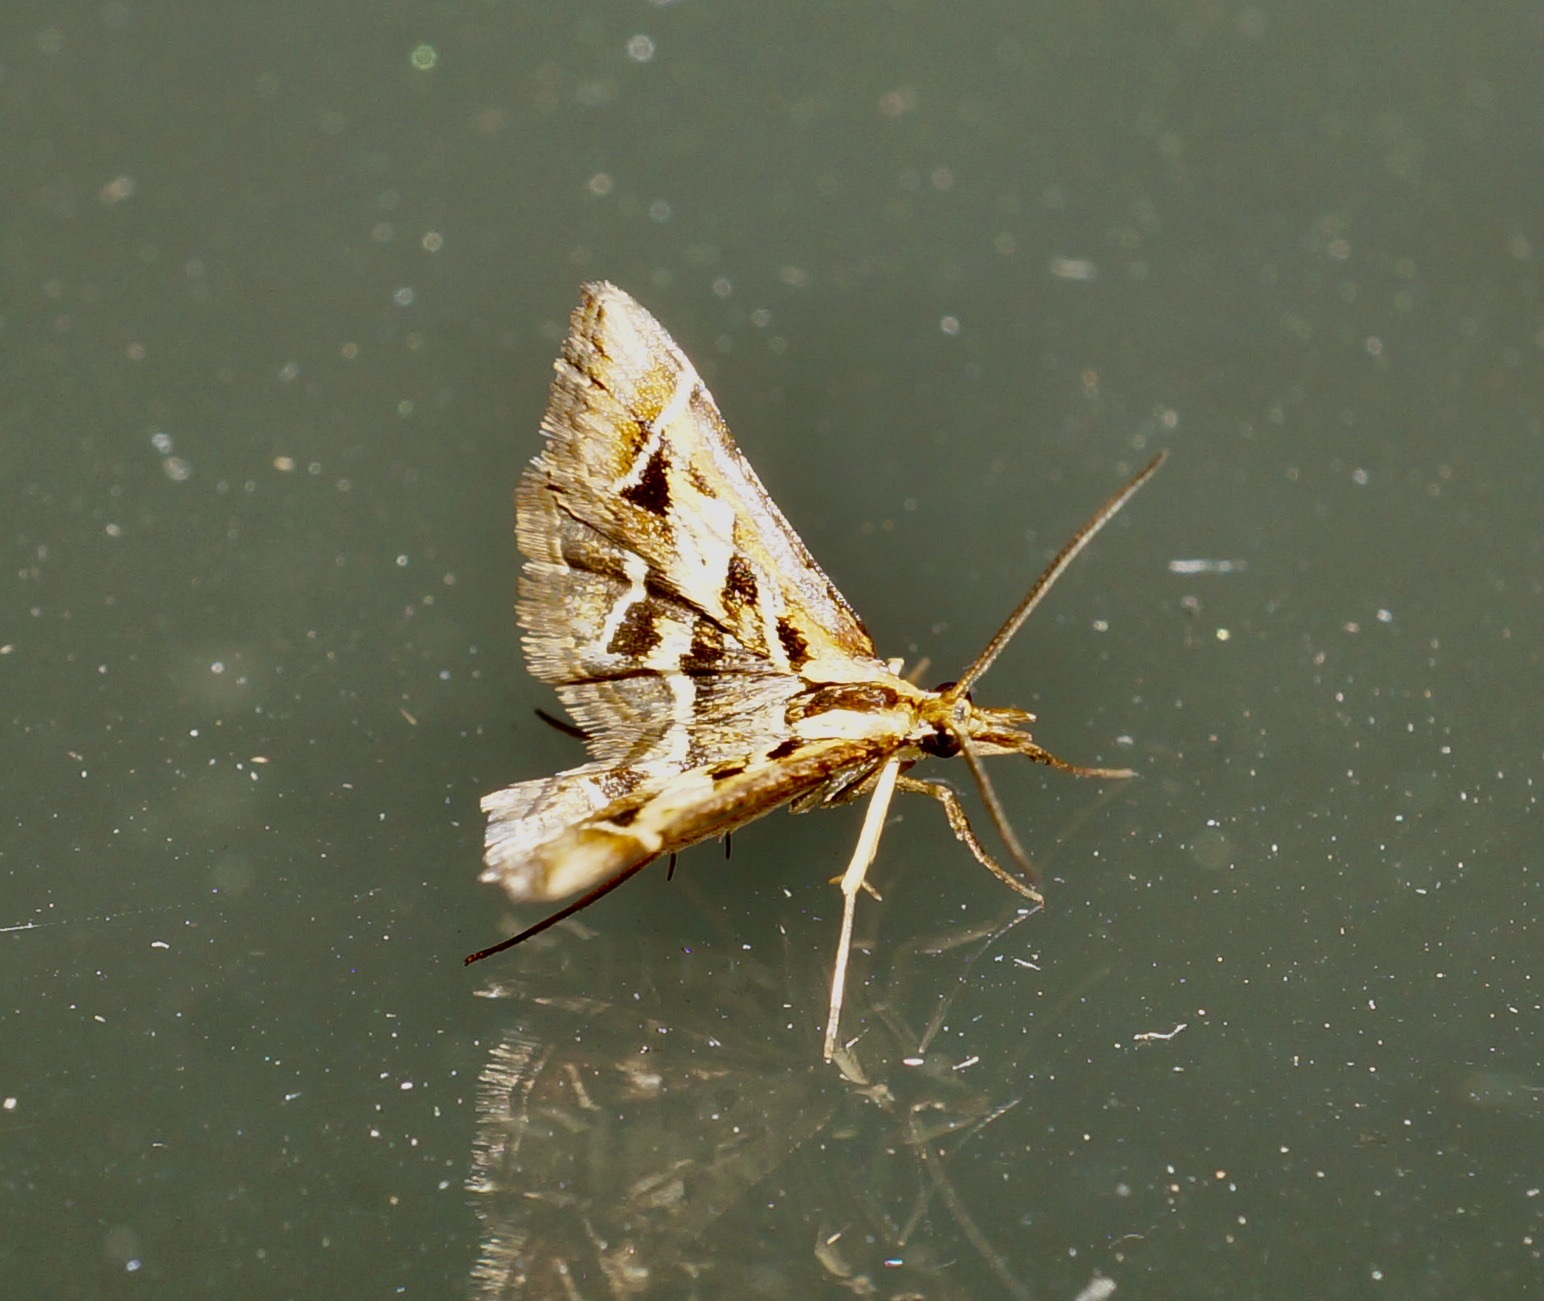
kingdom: Animalia
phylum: Arthropoda
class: Insecta
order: Lepidoptera
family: Crambidae
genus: Diasemia
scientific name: Diasemia grammalis
